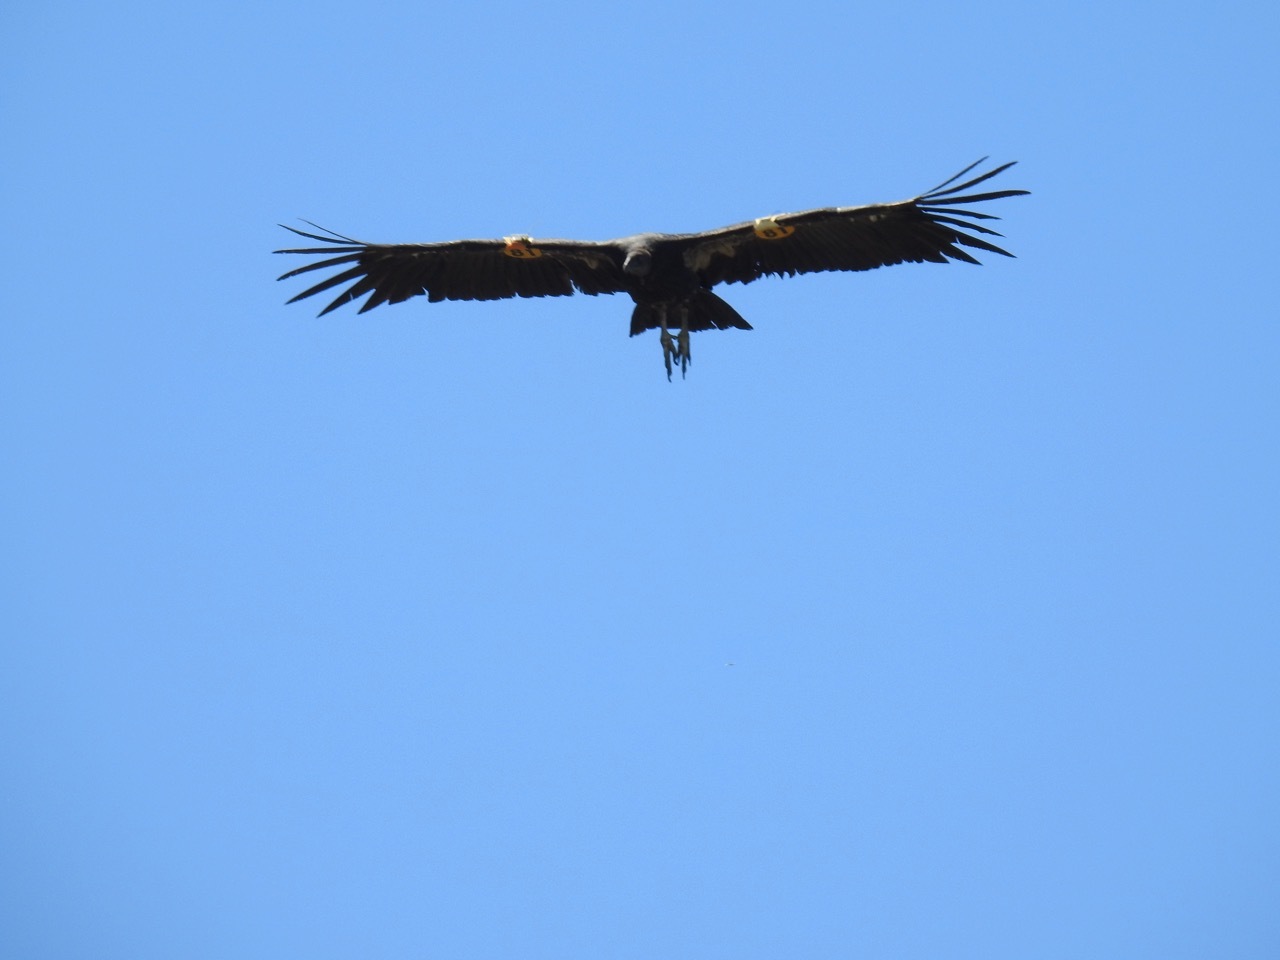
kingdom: Animalia
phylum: Chordata
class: Aves
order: Accipitriformes
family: Cathartidae
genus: Gymnogyps
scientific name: Gymnogyps californianus
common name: California condor
